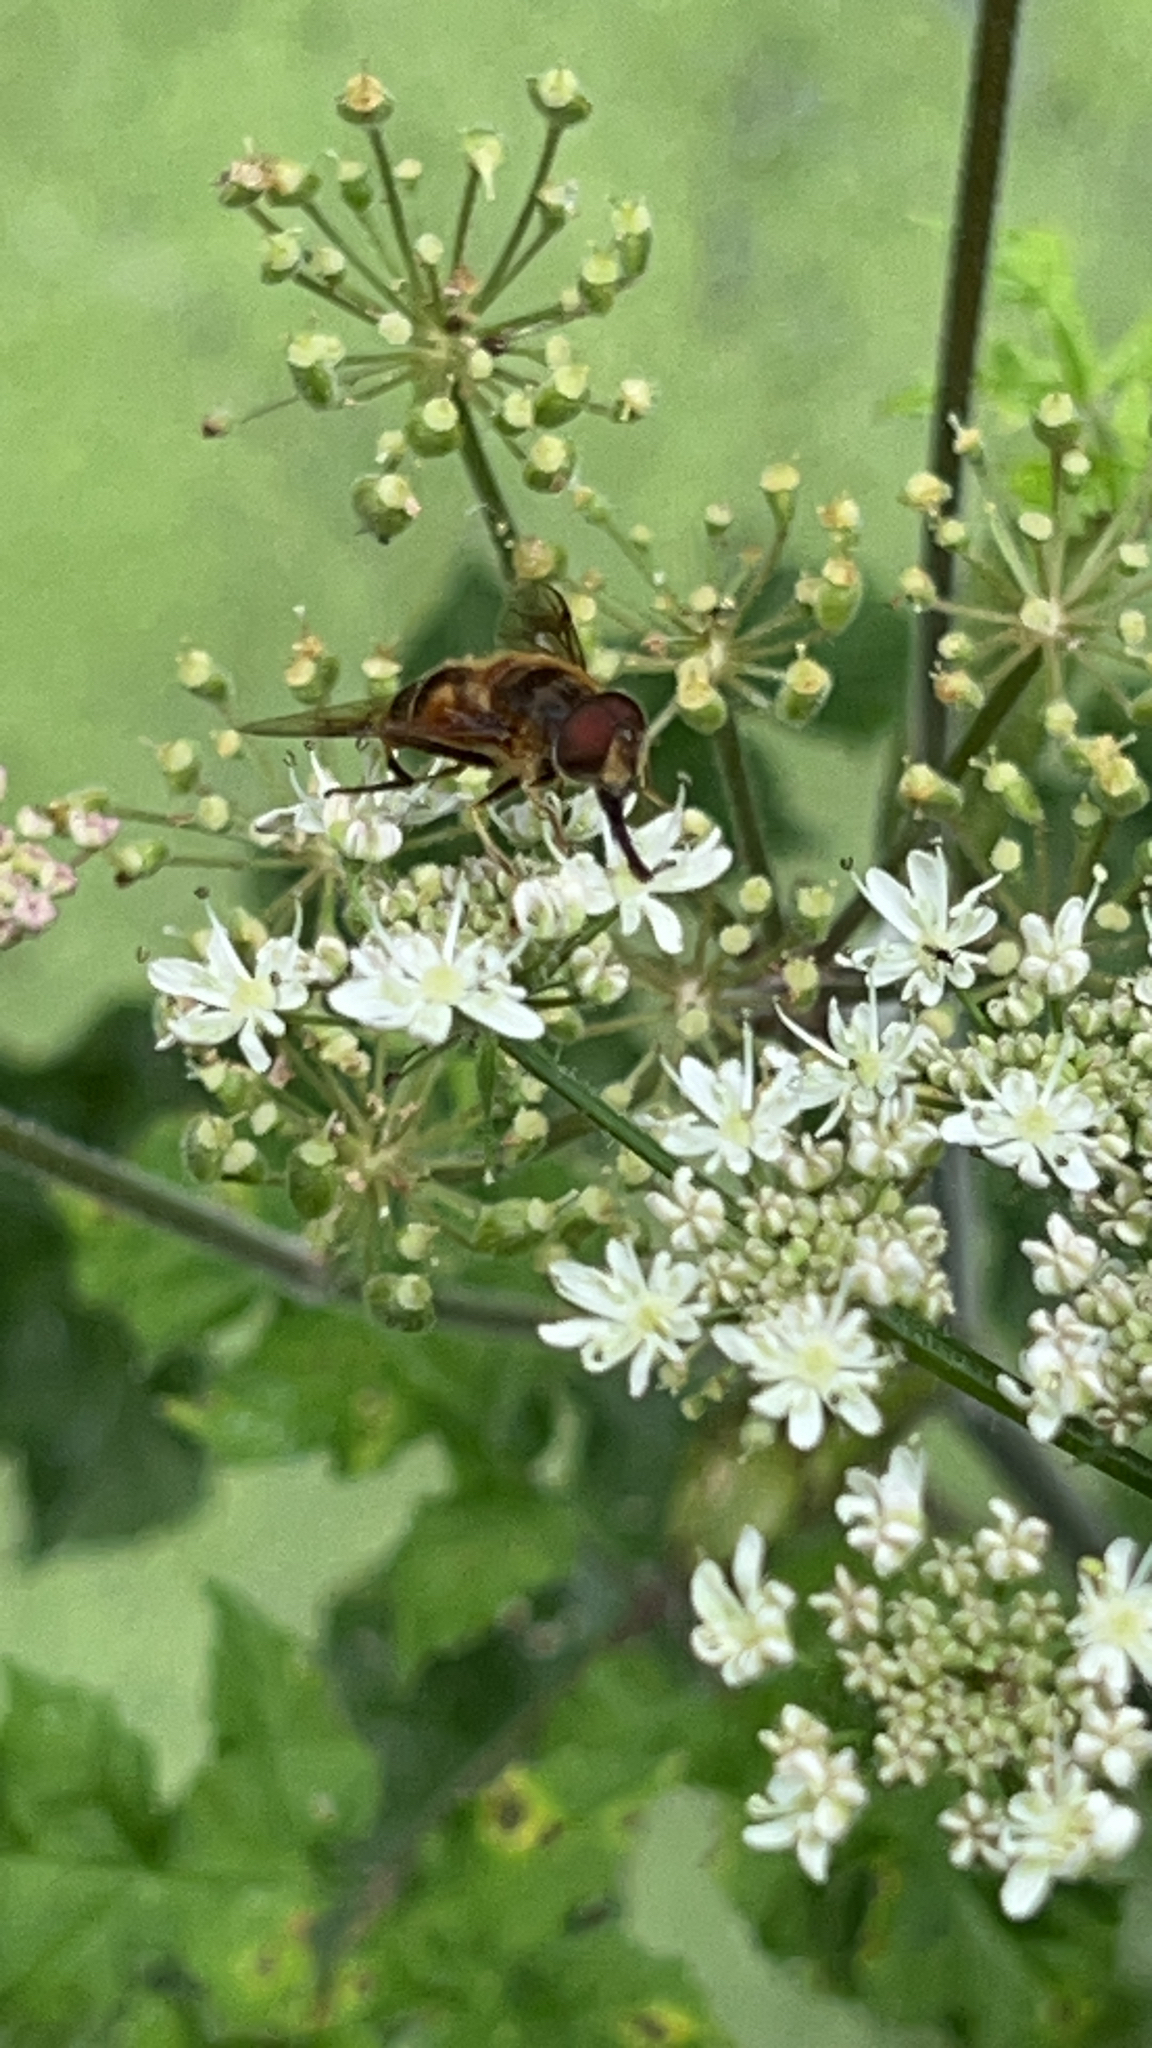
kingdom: Animalia
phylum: Arthropoda
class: Insecta
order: Diptera
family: Syrphidae
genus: Eoseristalis
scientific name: Eoseristalis
